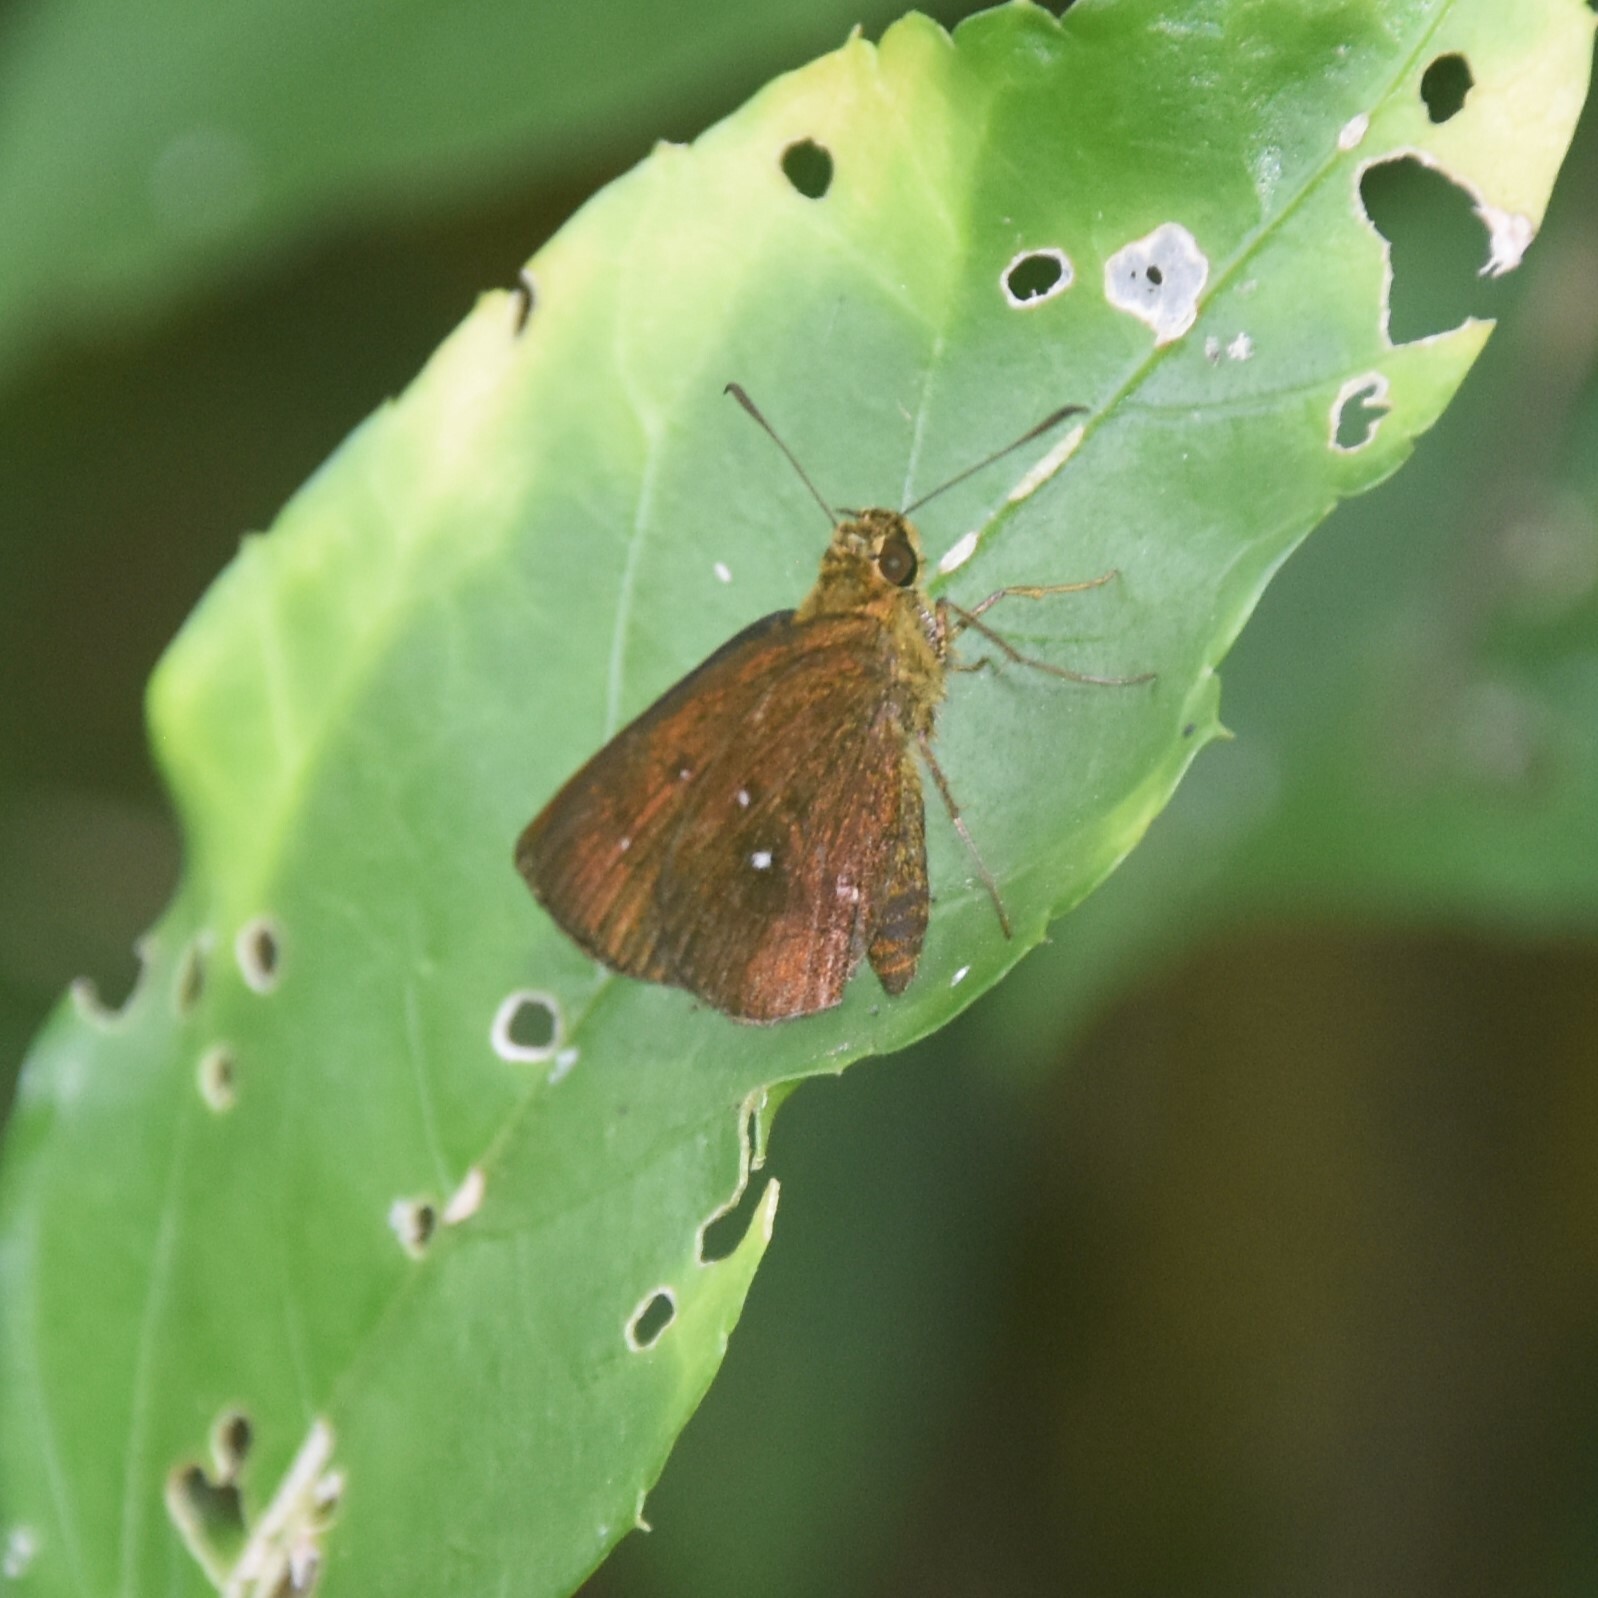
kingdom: Animalia
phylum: Arthropoda
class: Insecta
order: Lepidoptera
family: Hesperiidae
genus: Iambrix
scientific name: Iambrix salsala
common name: Chestnut bob
